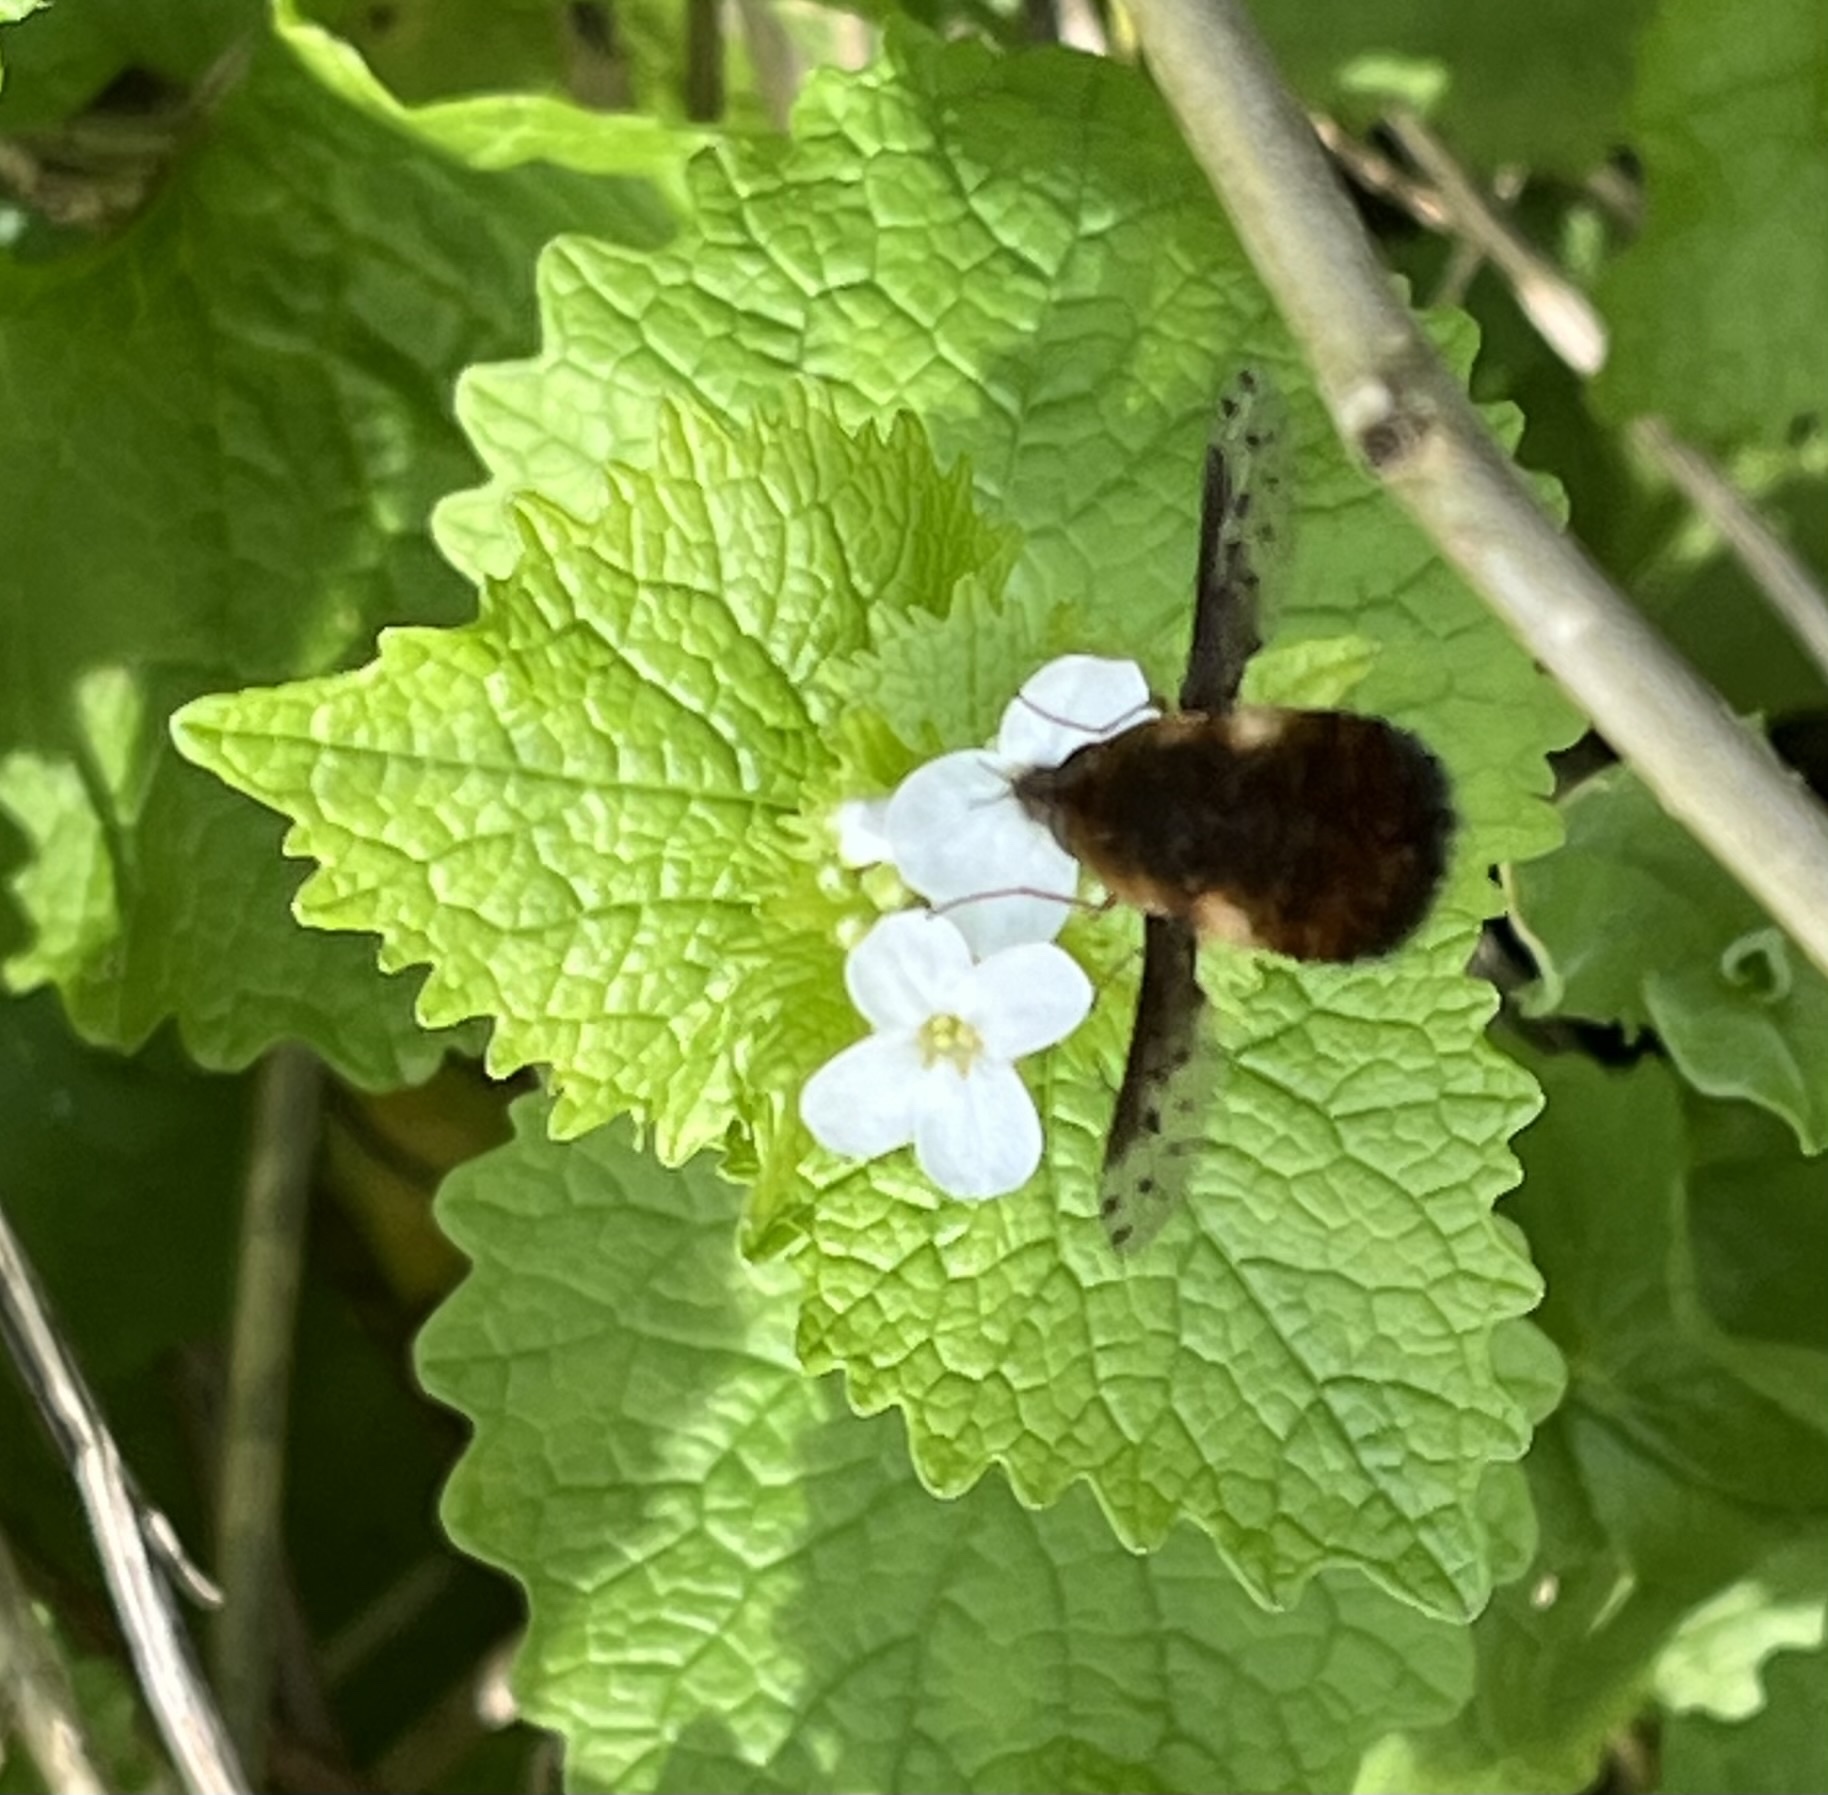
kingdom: Animalia
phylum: Arthropoda
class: Insecta
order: Diptera
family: Bombyliidae
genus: Bombylius
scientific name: Bombylius discolor
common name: Dotted bee-fly
